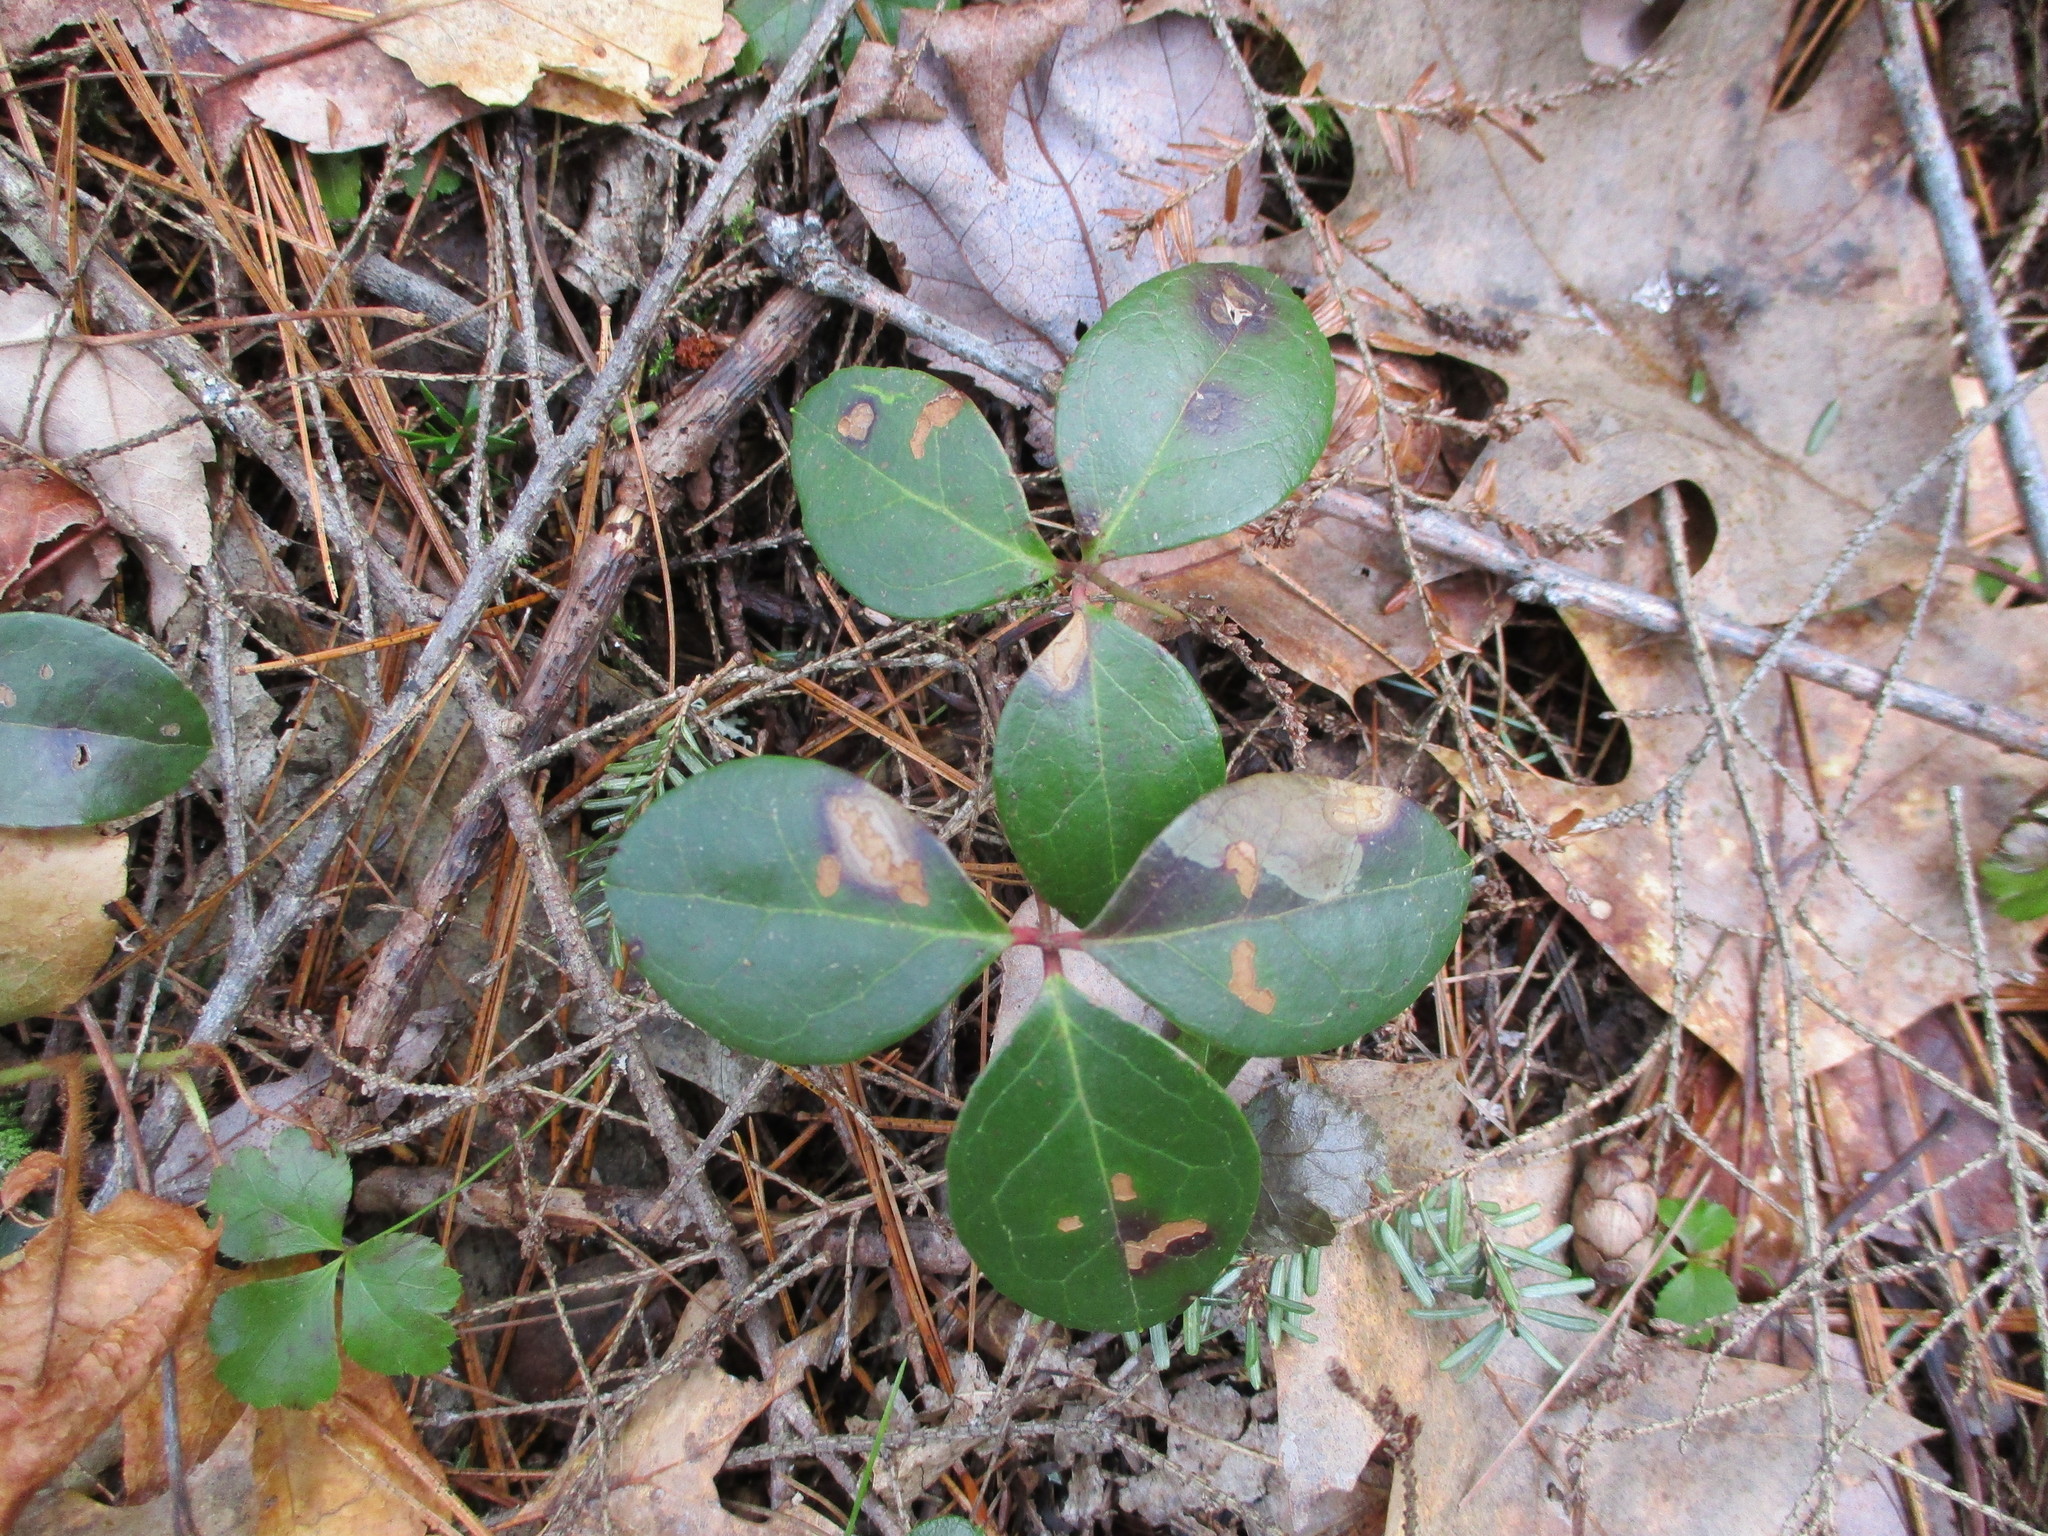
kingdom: Plantae
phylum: Tracheophyta
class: Magnoliopsida
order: Ericales
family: Ericaceae
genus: Gaultheria
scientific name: Gaultheria procumbens
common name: Checkerberry
